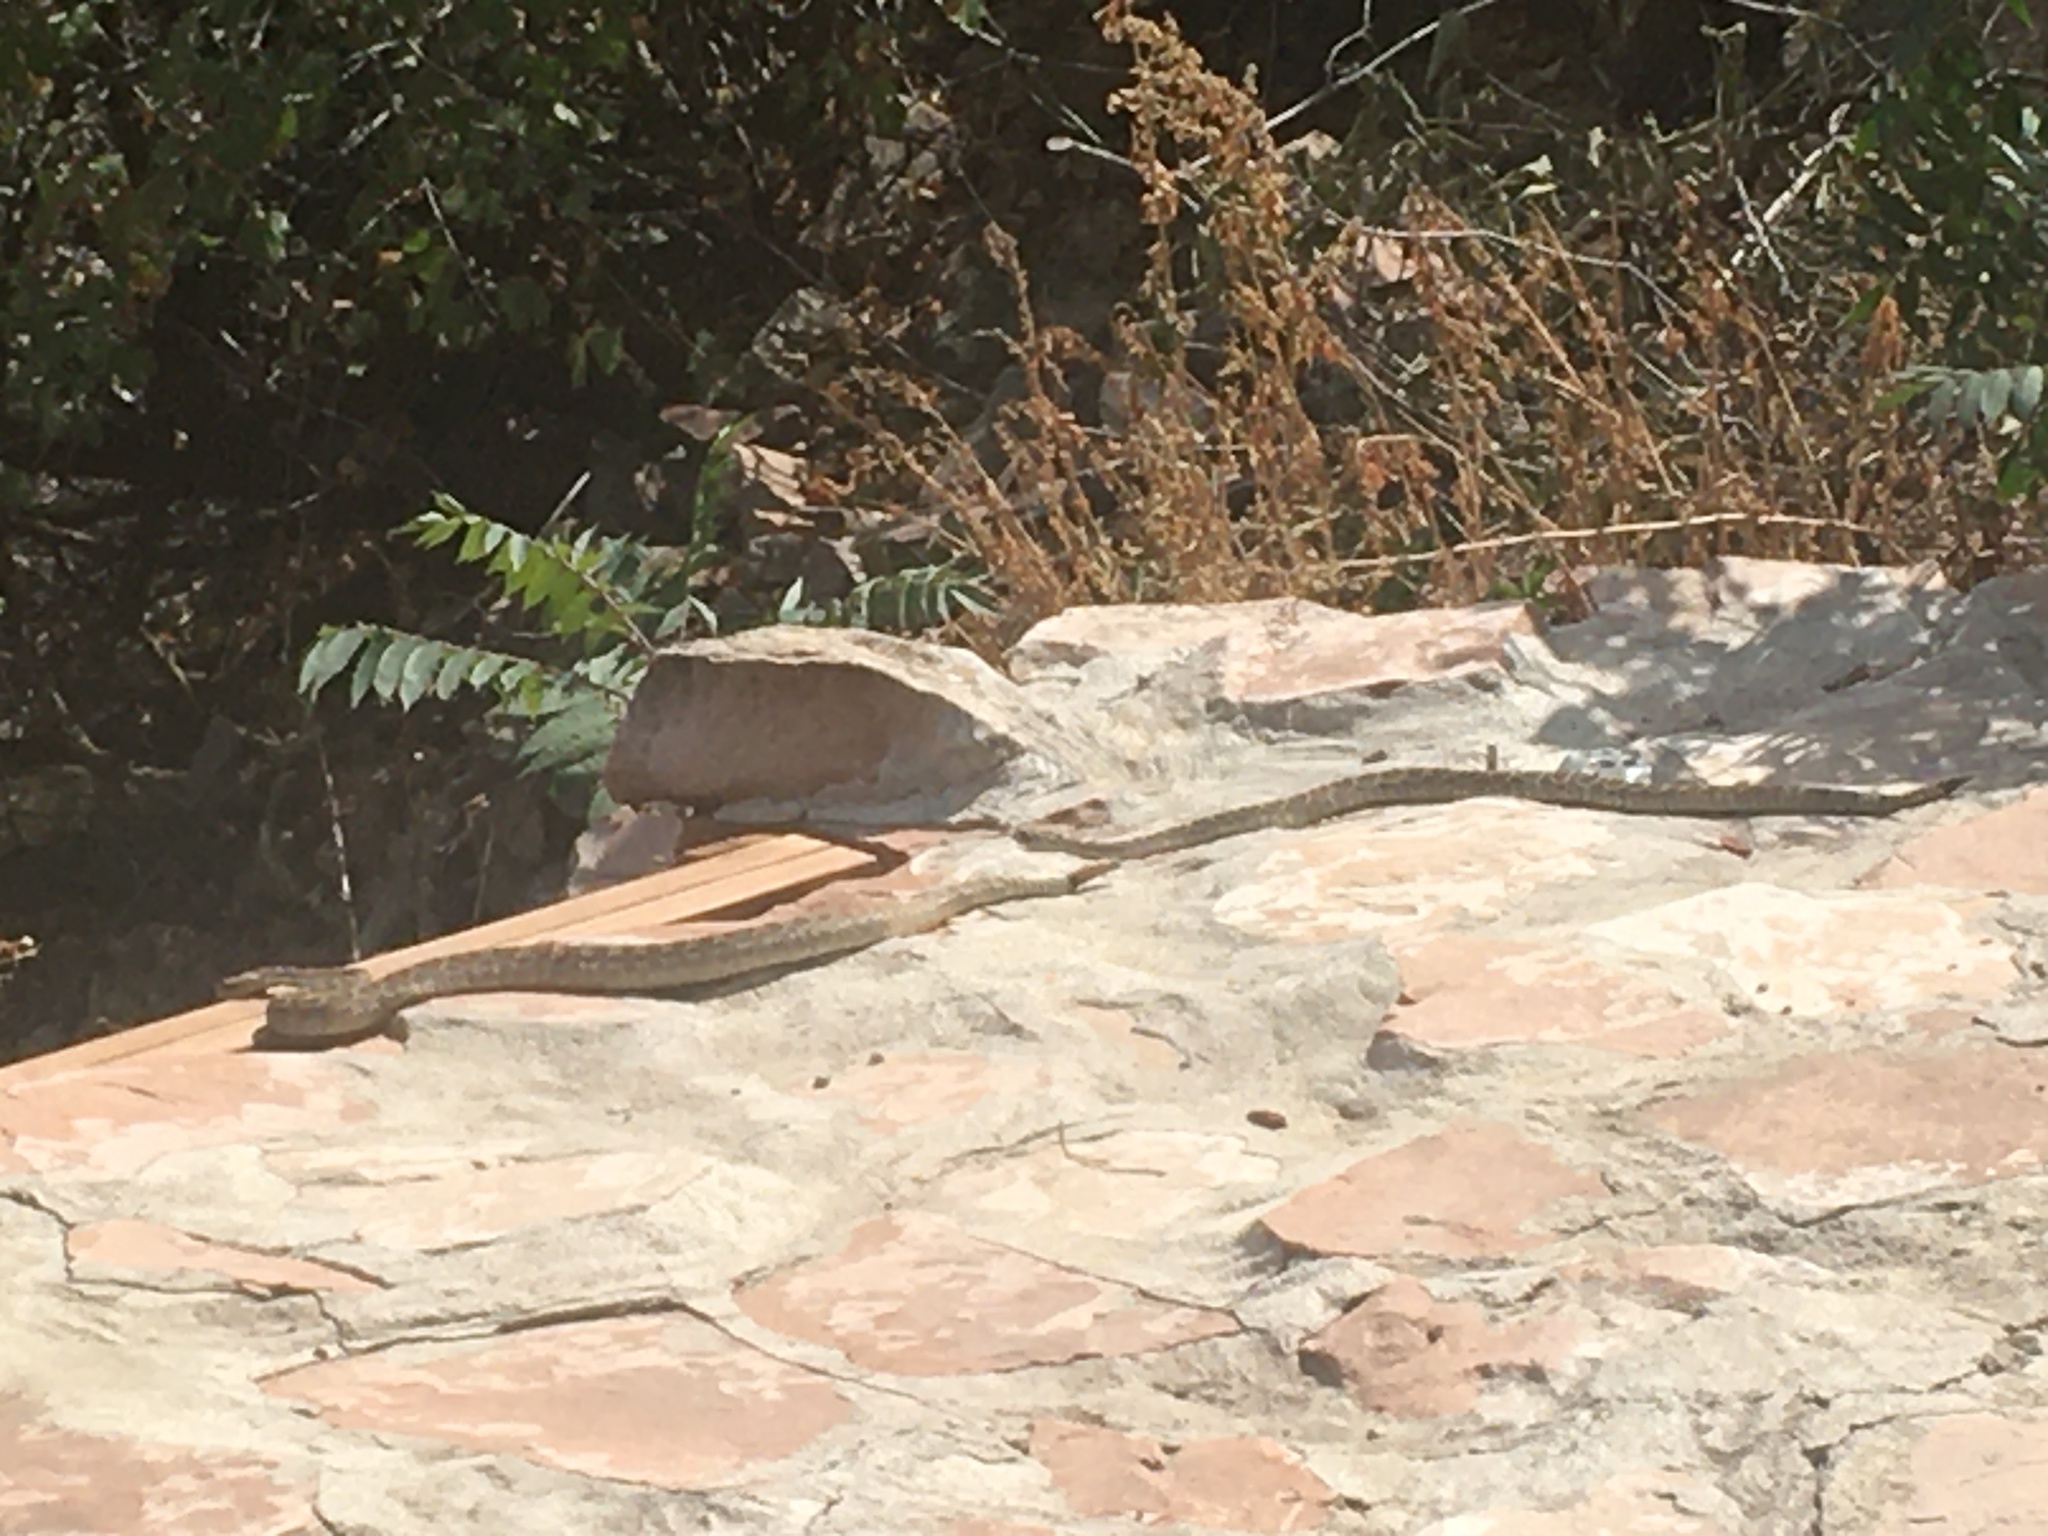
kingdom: Animalia
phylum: Chordata
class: Squamata
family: Viperidae
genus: Crotalus
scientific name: Crotalus viridis
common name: Prairie rattlesnake
